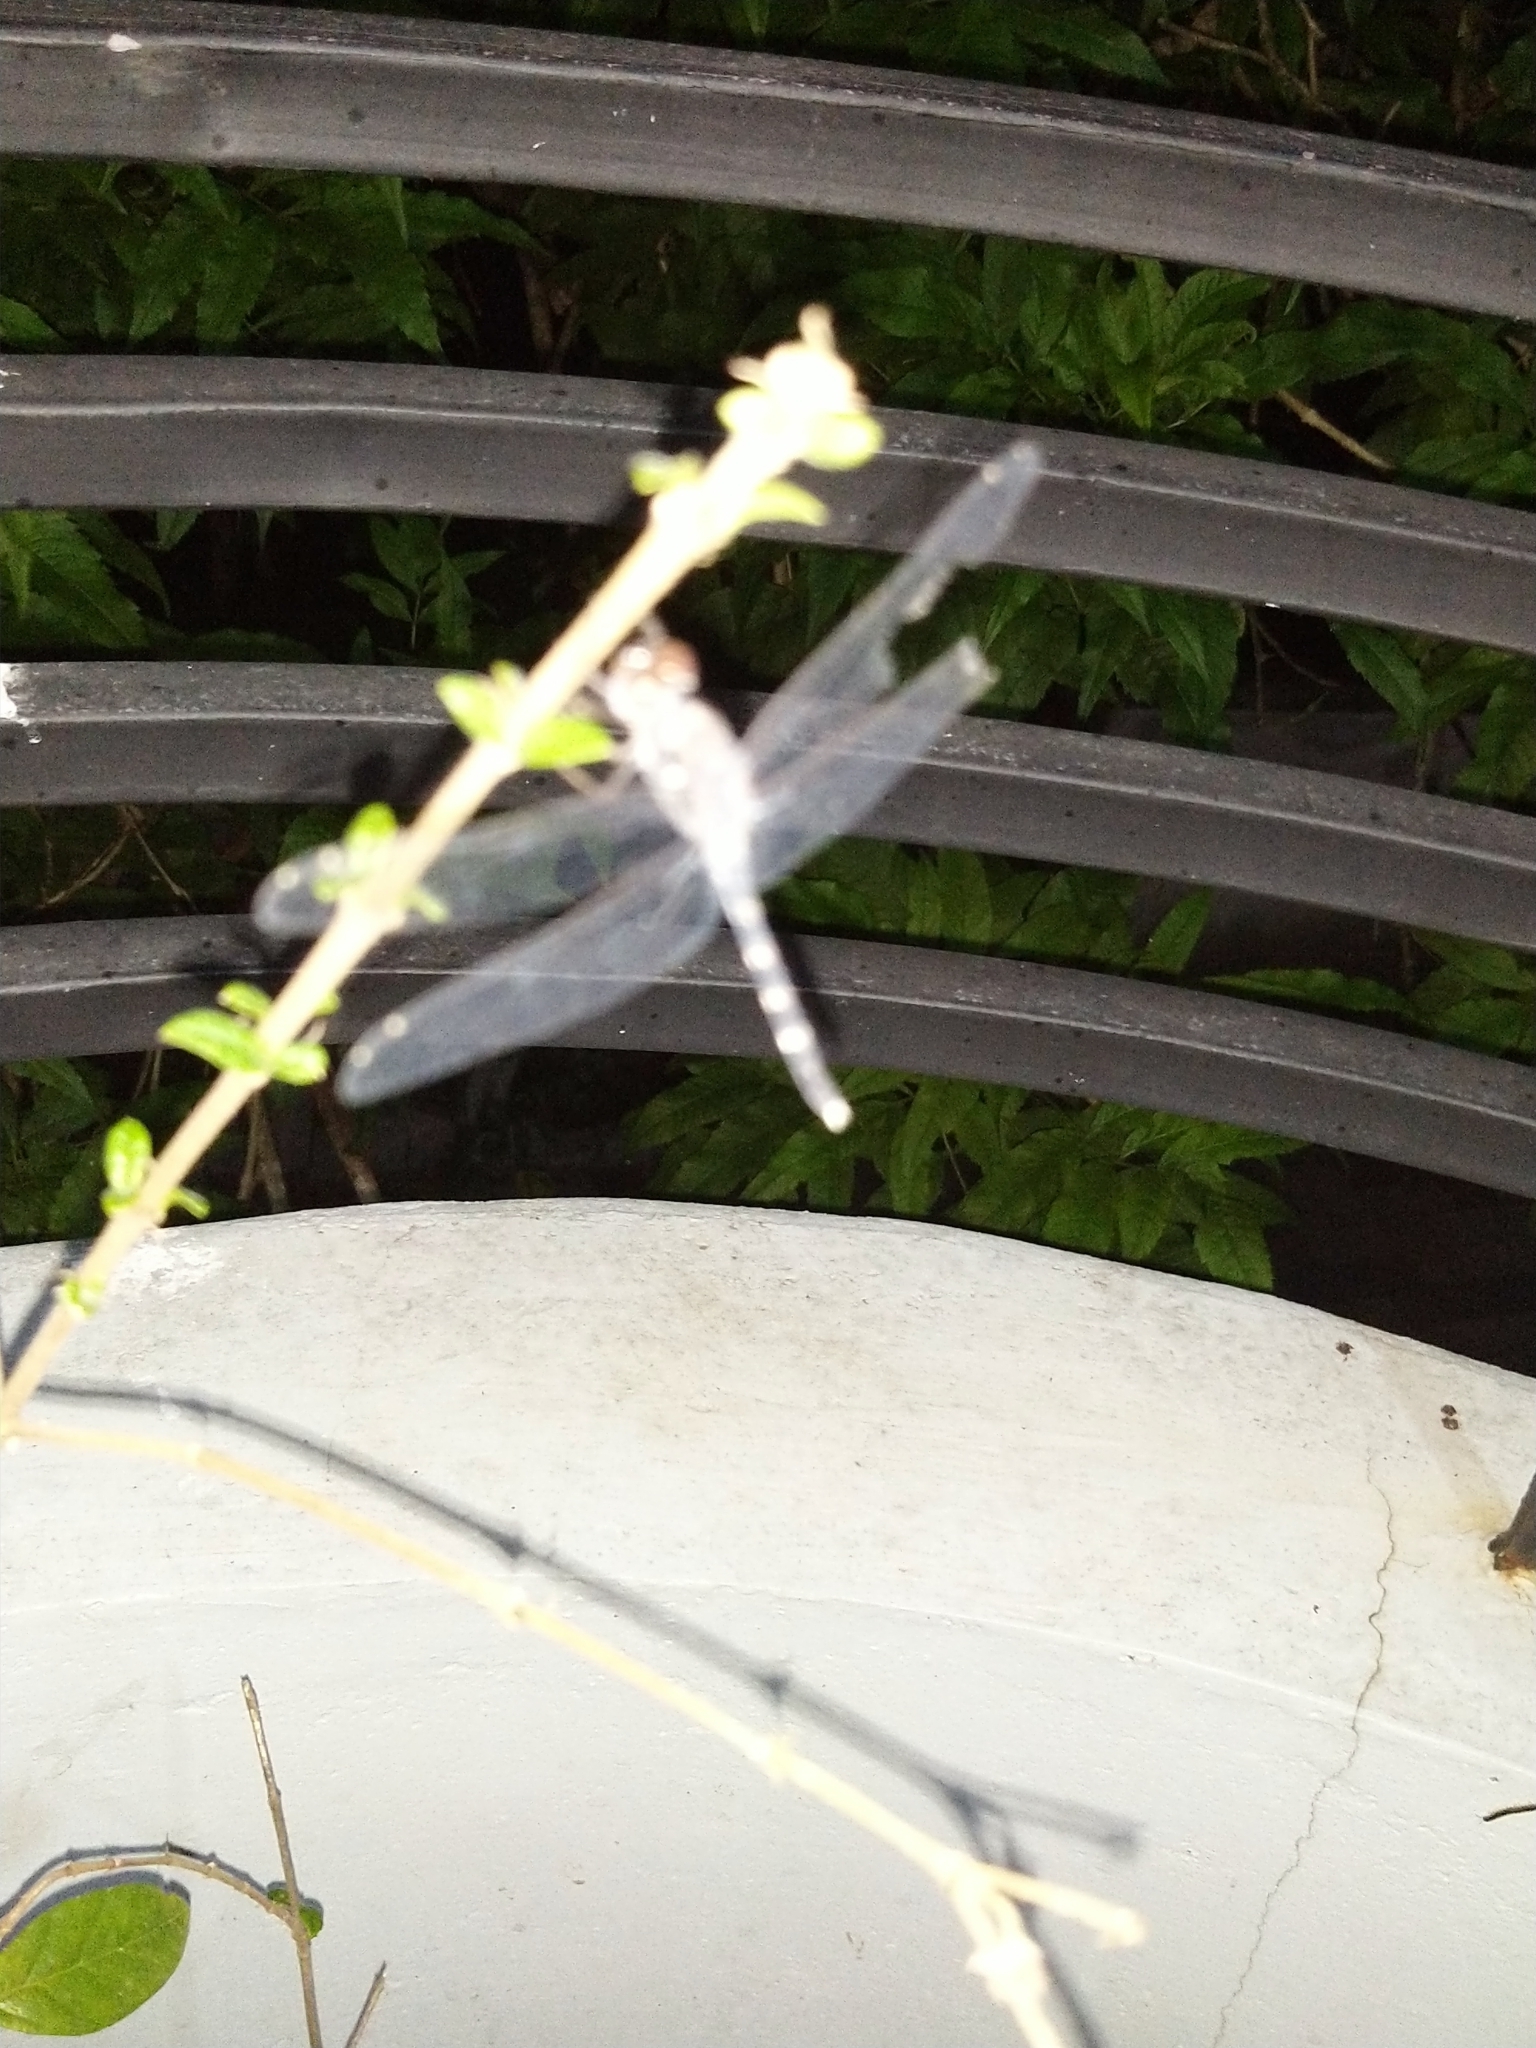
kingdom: Animalia
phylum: Arthropoda
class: Insecta
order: Odonata
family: Libellulidae
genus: Bradinopyga
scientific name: Bradinopyga geminata
